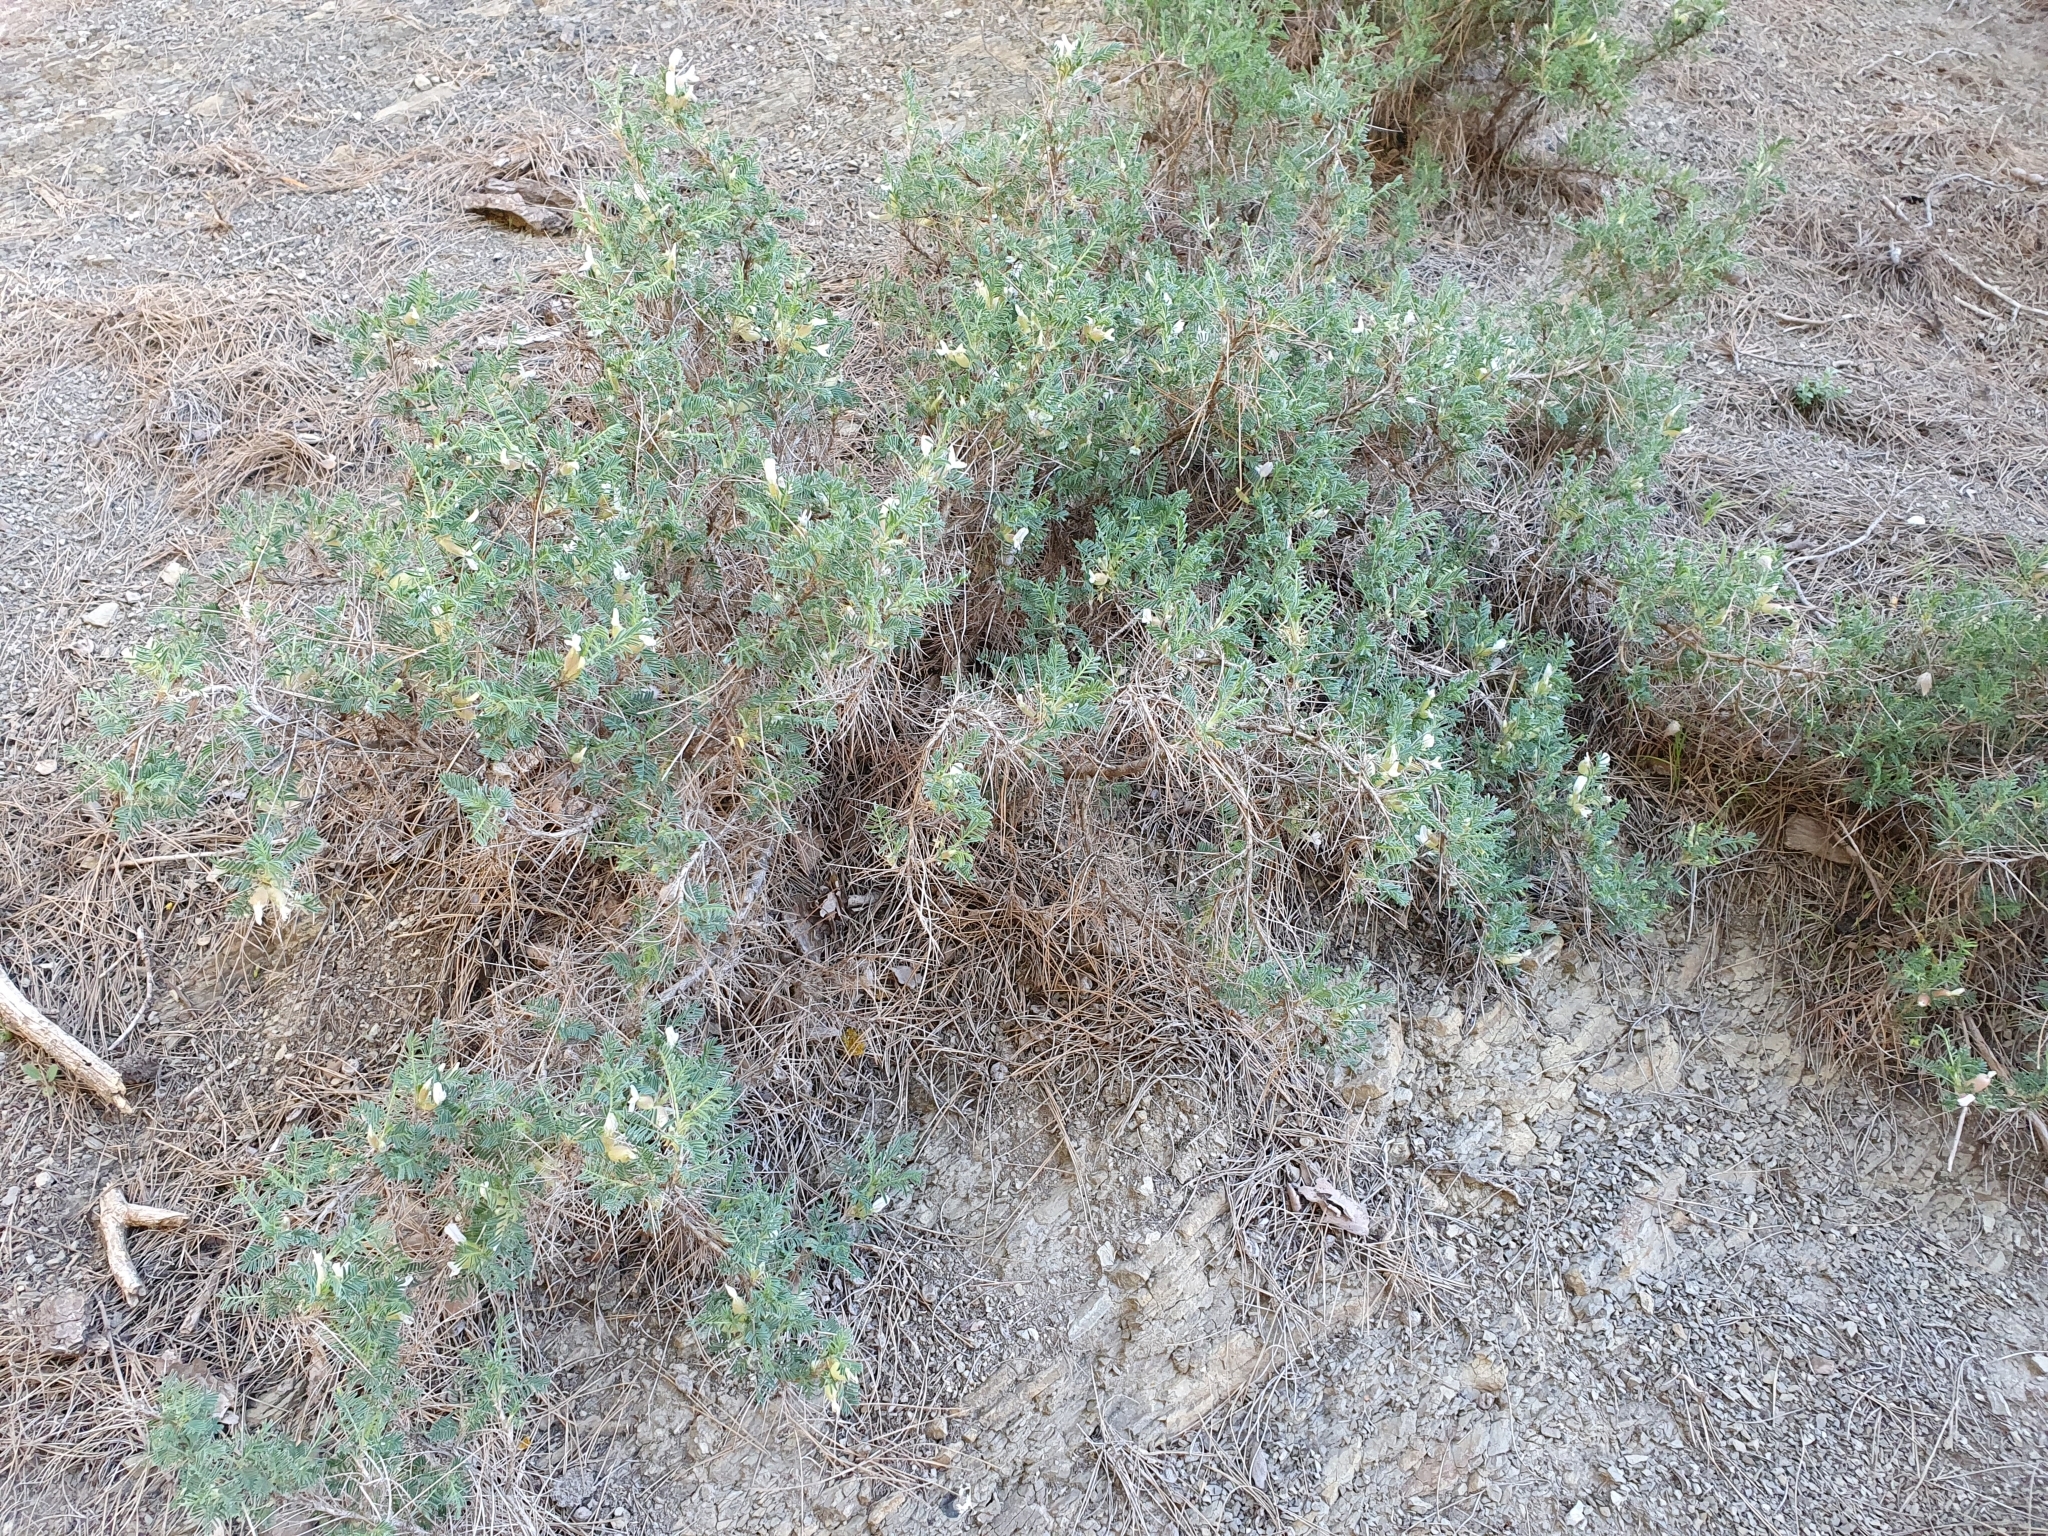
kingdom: Plantae
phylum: Tracheophyta
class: Magnoliopsida
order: Fabales
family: Fabaceae
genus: Astragalus
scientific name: Astragalus armatus
